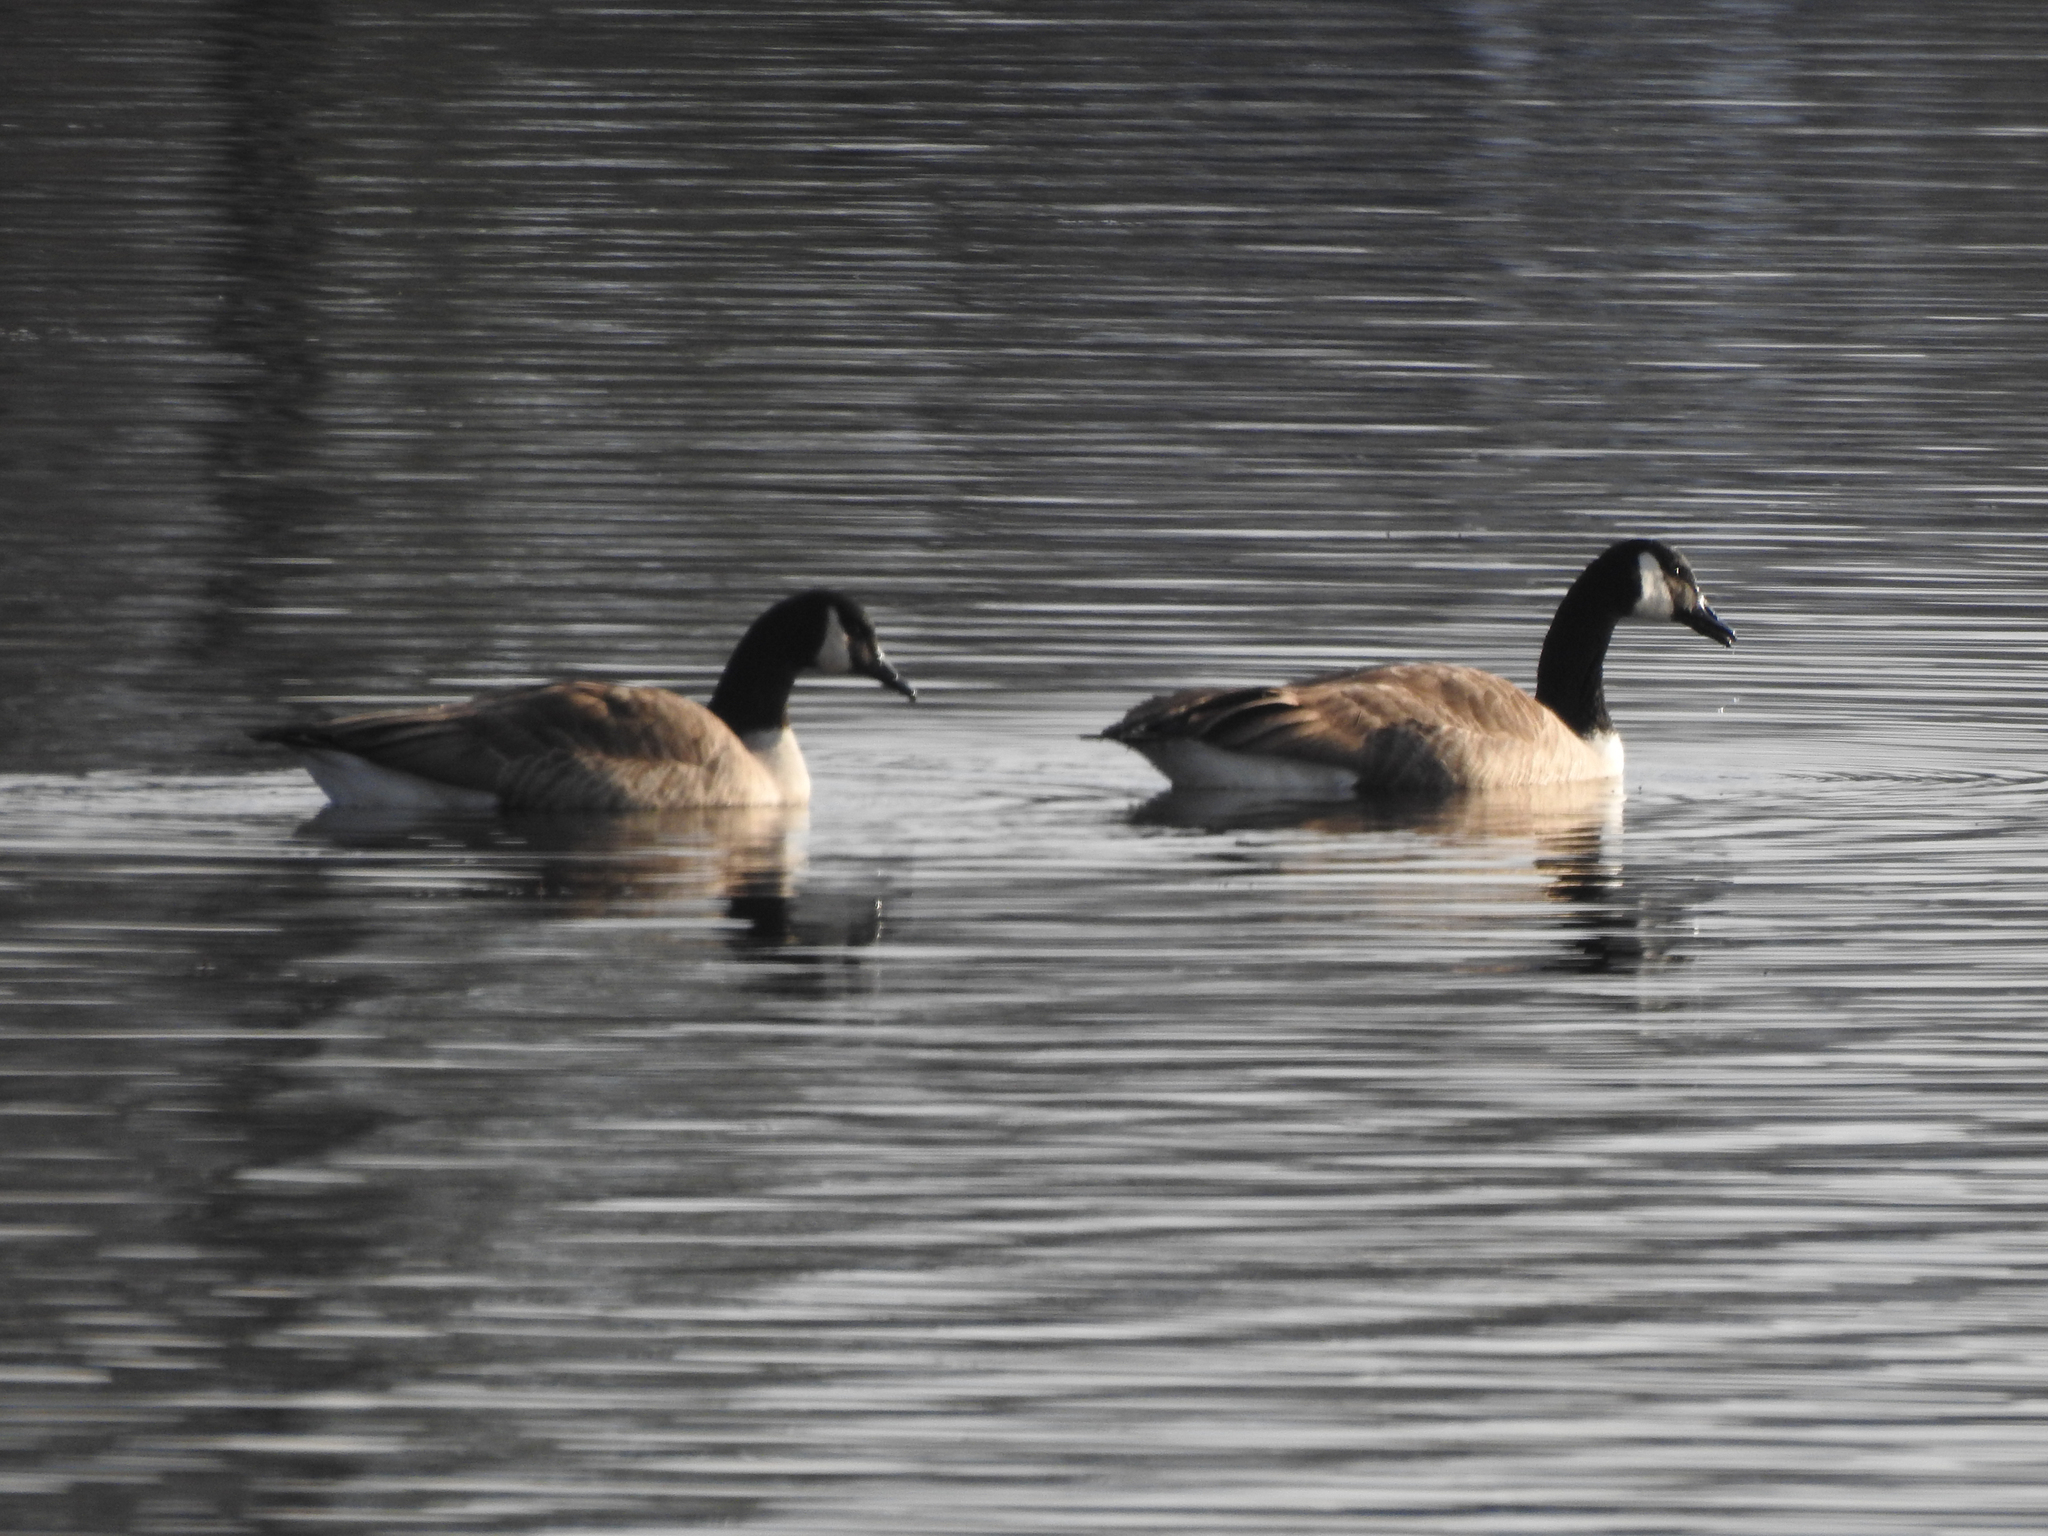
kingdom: Animalia
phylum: Chordata
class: Aves
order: Anseriformes
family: Anatidae
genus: Branta
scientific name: Branta canadensis
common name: Canada goose
